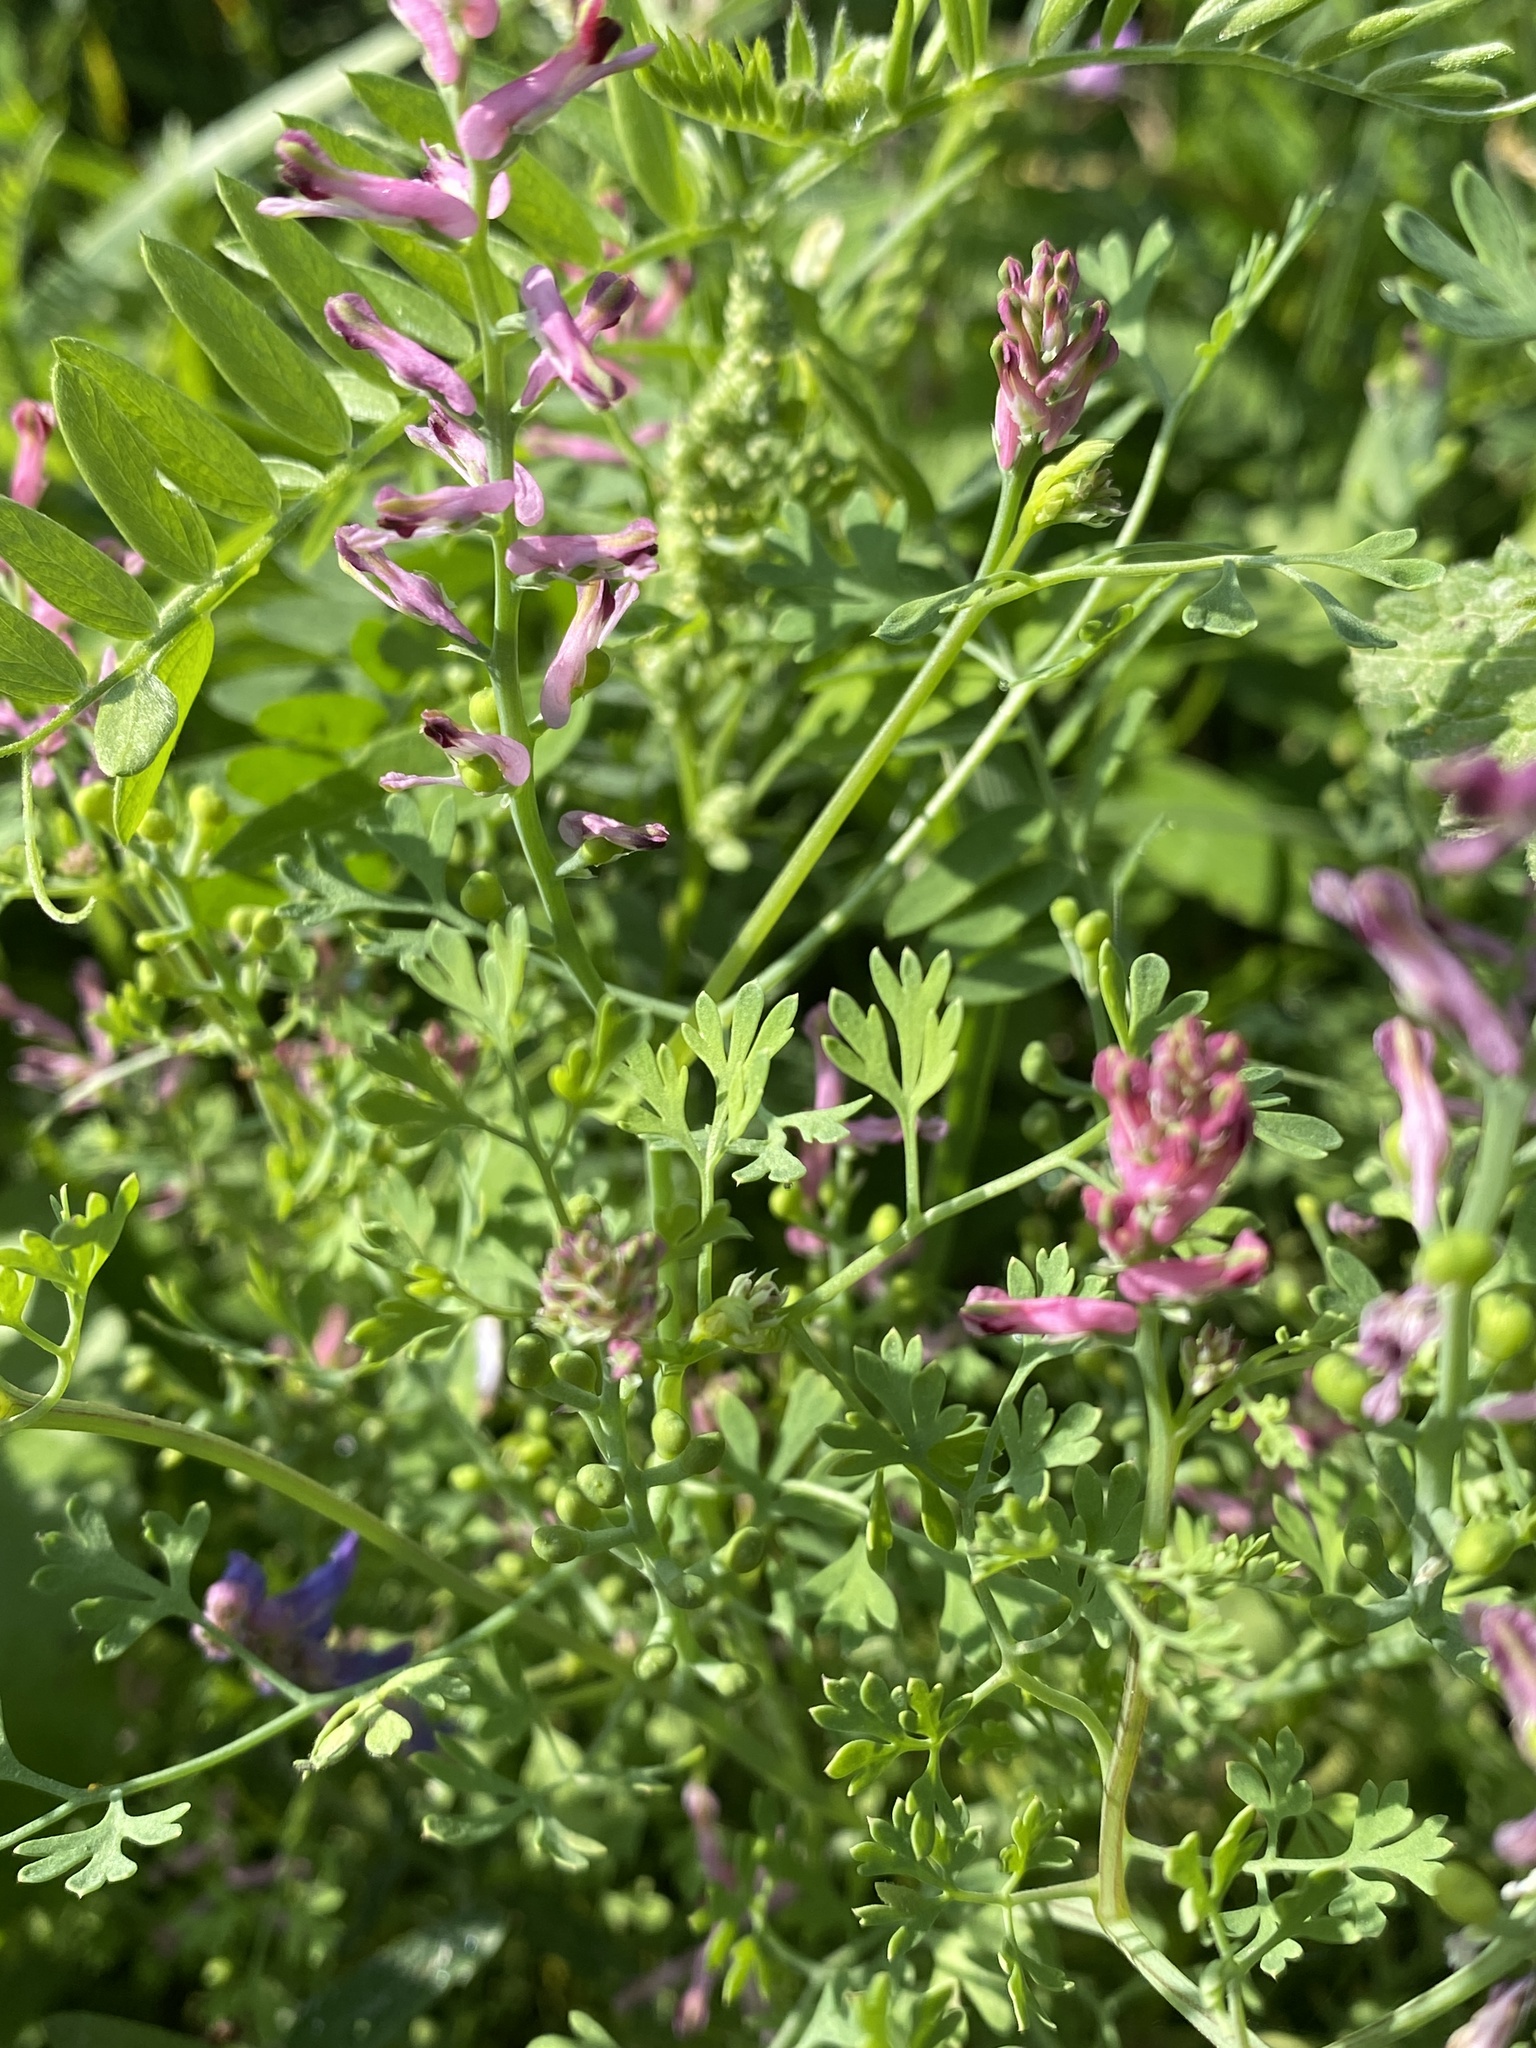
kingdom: Plantae
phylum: Tracheophyta
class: Magnoliopsida
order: Ranunculales
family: Papaveraceae
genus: Fumaria
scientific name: Fumaria officinalis
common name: Common fumitory
